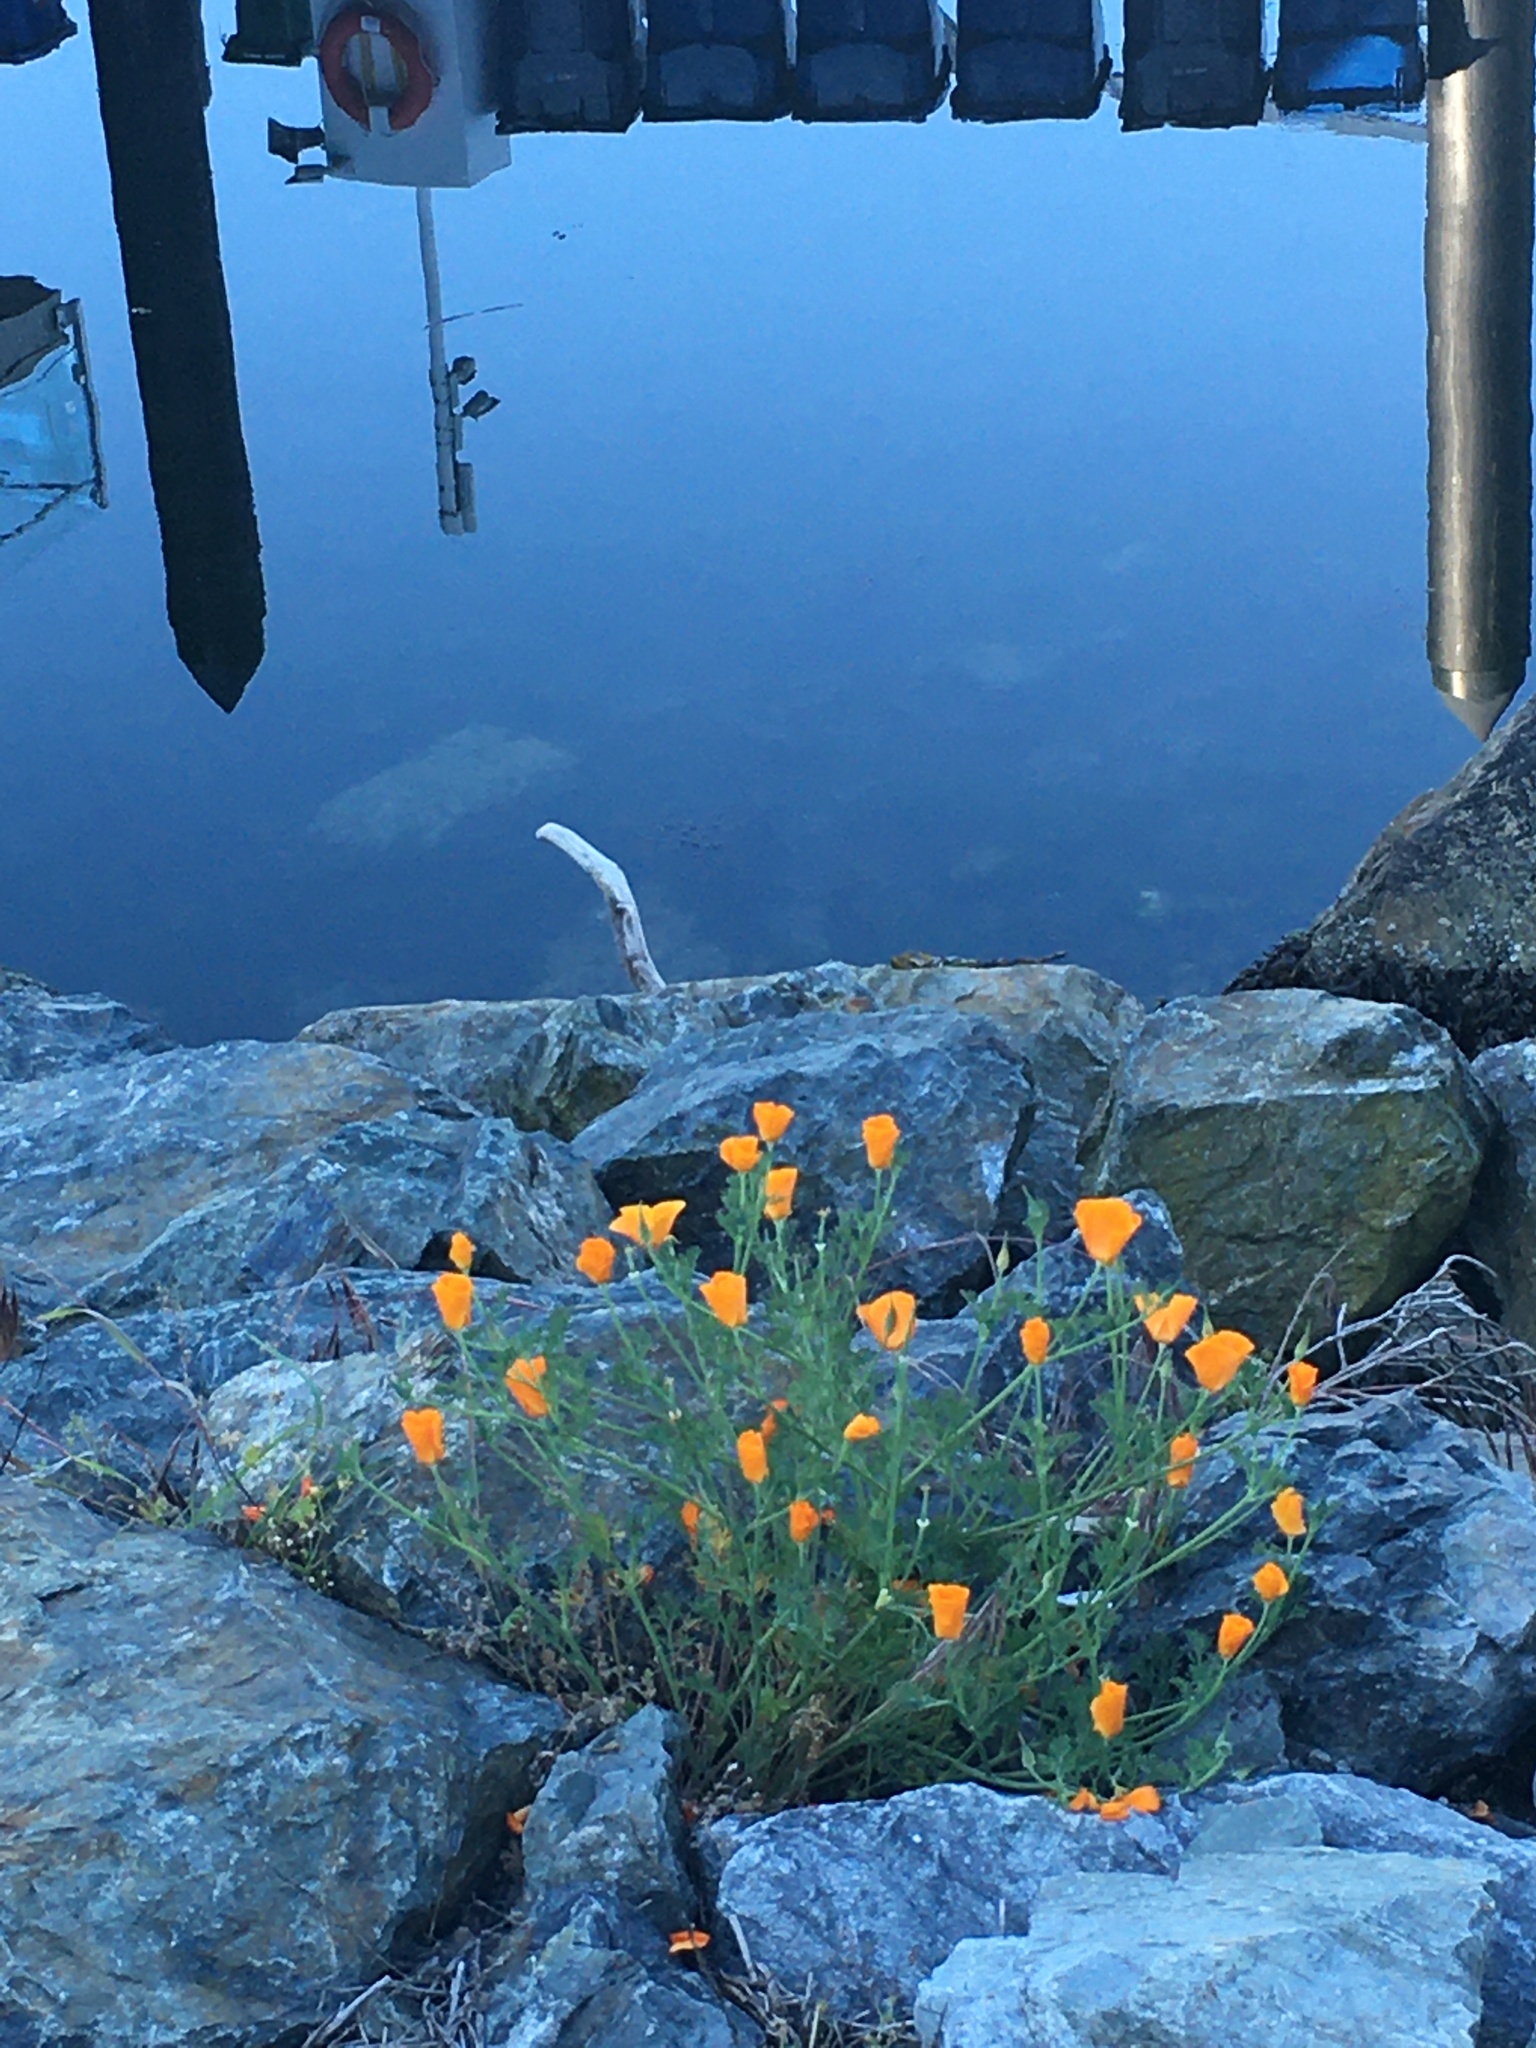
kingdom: Plantae
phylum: Tracheophyta
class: Magnoliopsida
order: Ranunculales
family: Papaveraceae
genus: Eschscholzia
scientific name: Eschscholzia californica
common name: California poppy
